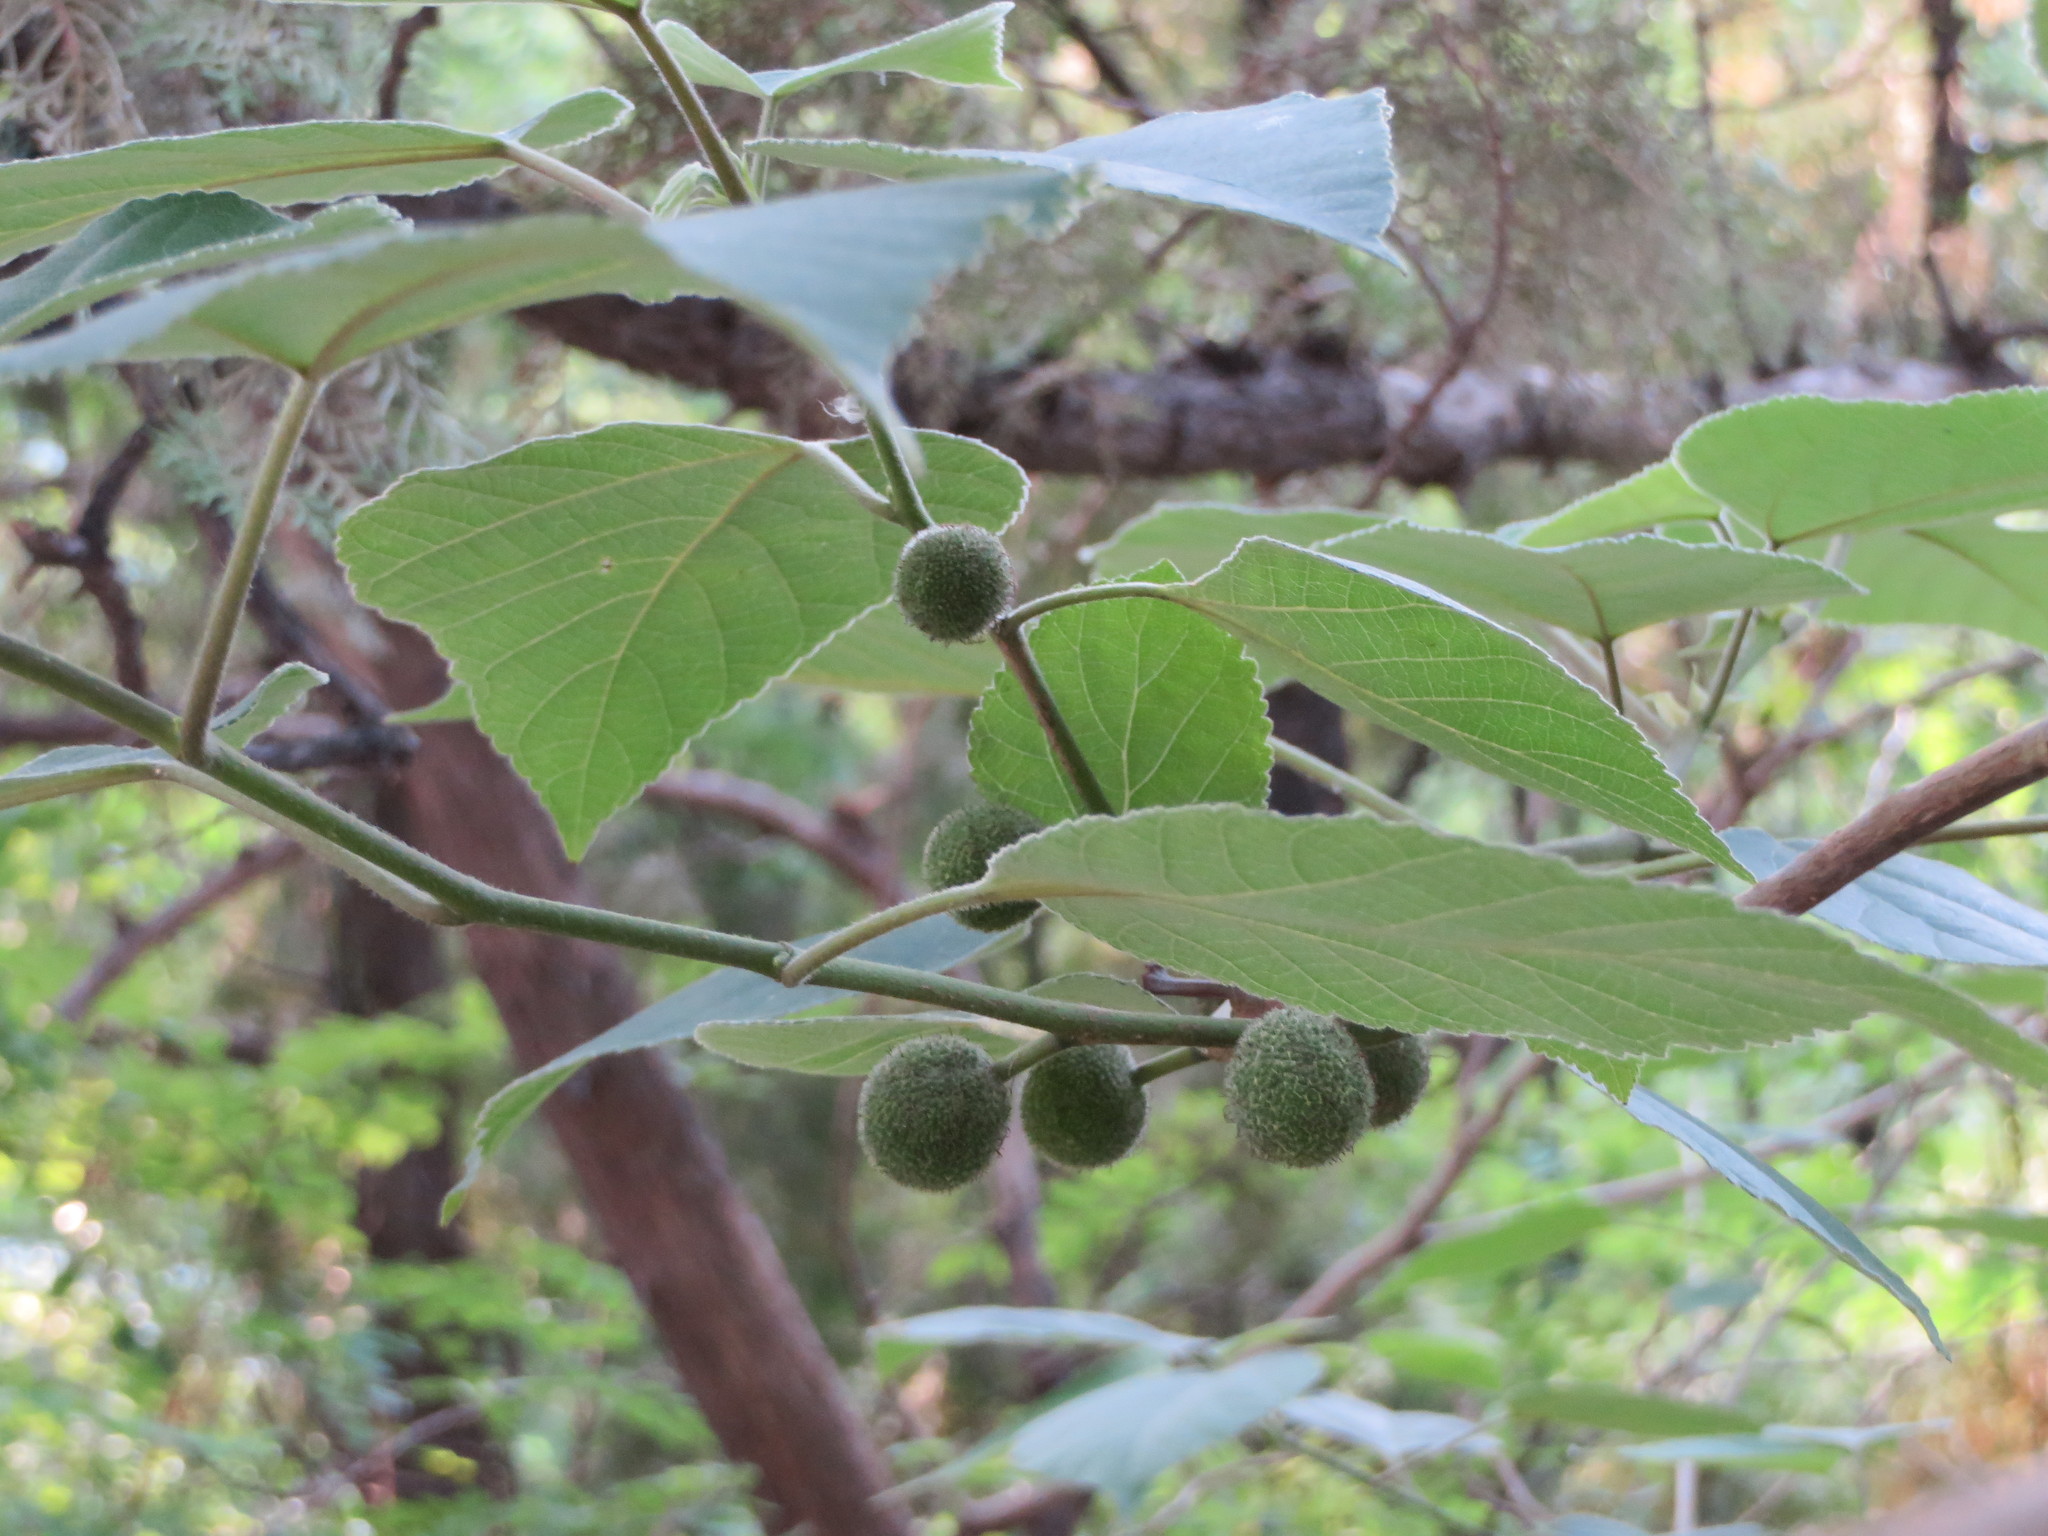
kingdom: Plantae
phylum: Tracheophyta
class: Magnoliopsida
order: Rosales
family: Moraceae
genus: Broussonetia
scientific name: Broussonetia papyrifera
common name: Paper mulberry
